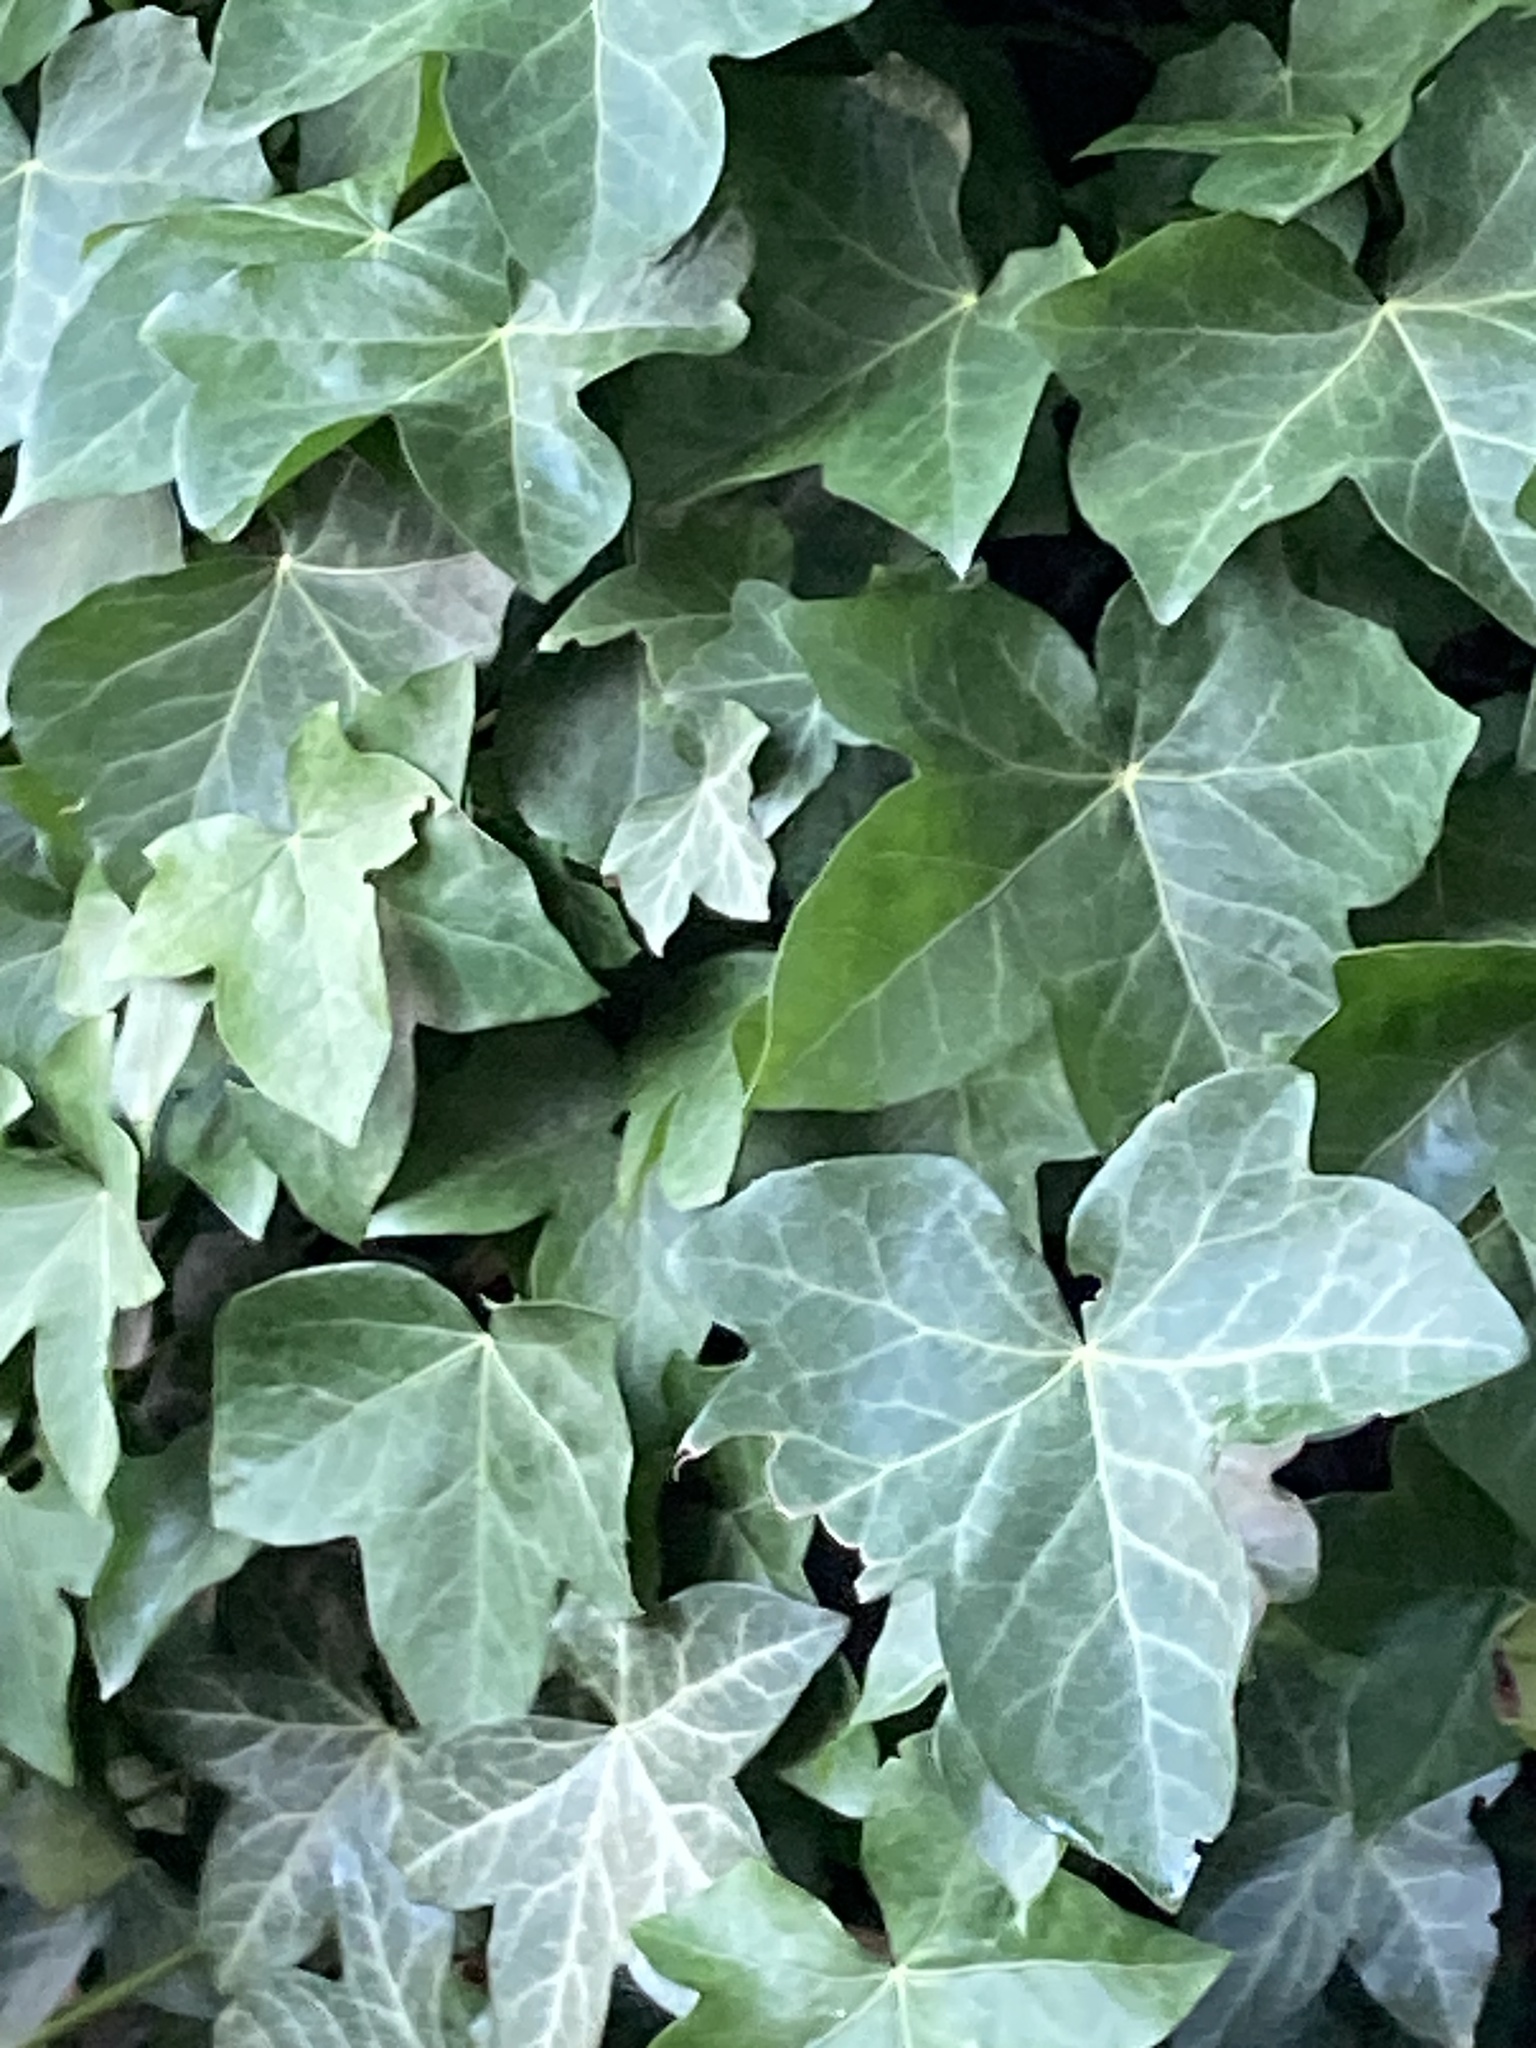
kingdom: Plantae
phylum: Tracheophyta
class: Magnoliopsida
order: Apiales
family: Araliaceae
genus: Hedera
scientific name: Hedera helix
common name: Ivy
